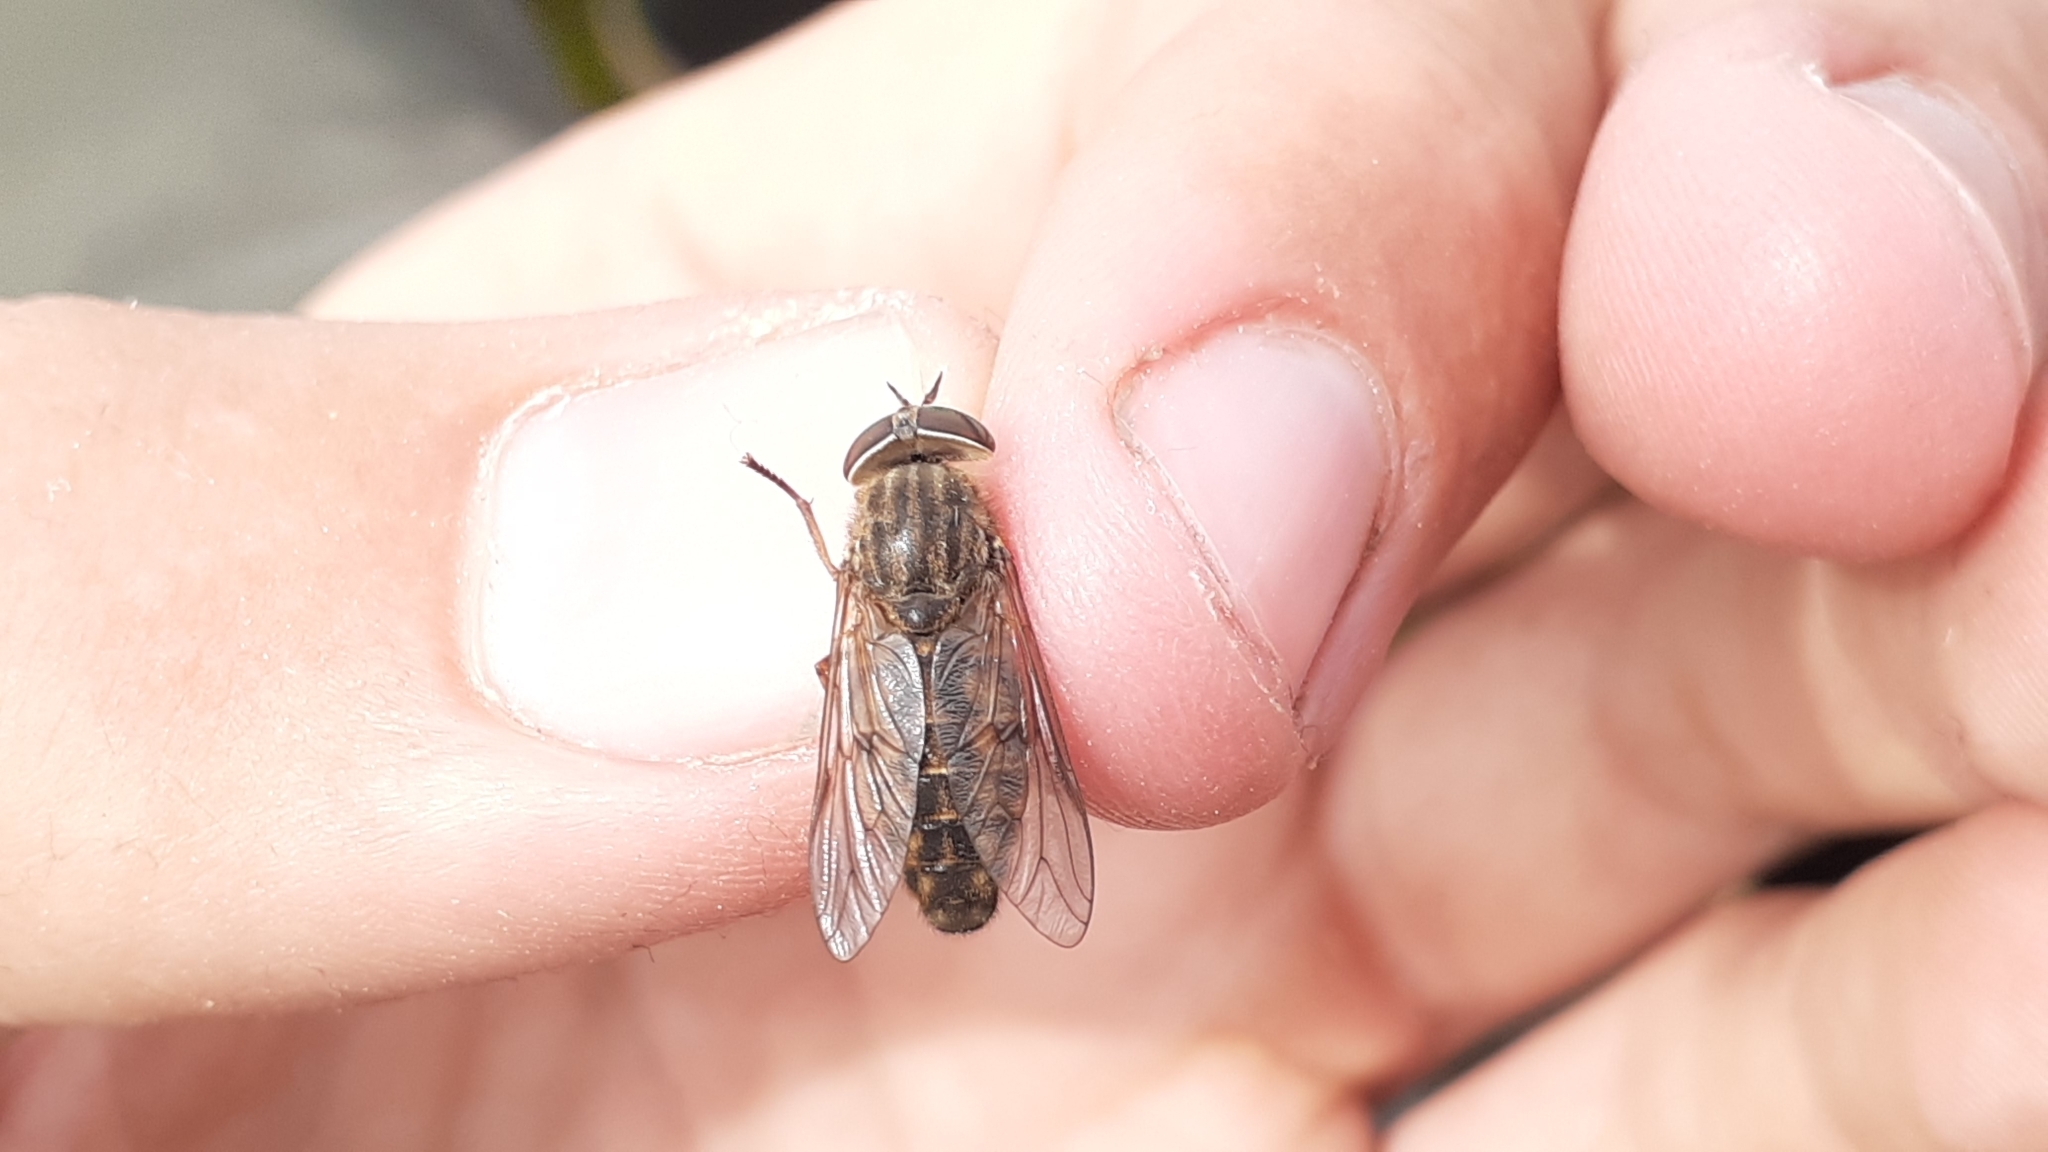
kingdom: Animalia
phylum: Arthropoda
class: Insecta
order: Diptera
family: Tabanidae
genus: Hybomitra
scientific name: Hybomitra frontalis
